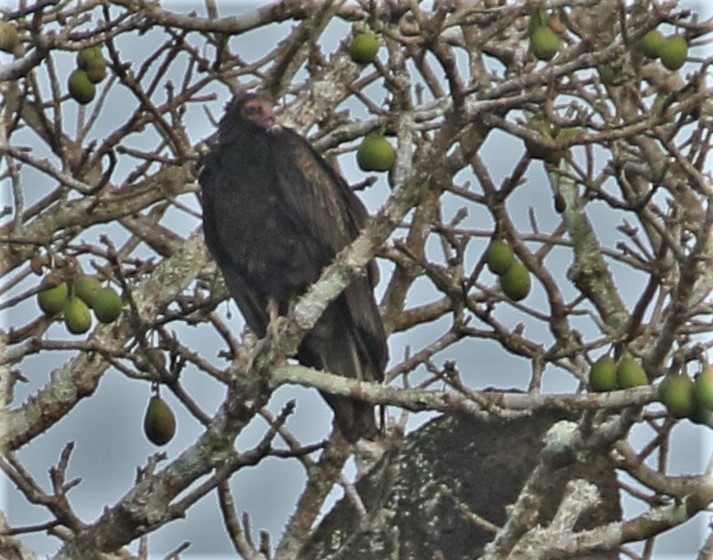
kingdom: Animalia
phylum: Chordata
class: Aves
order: Accipitriformes
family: Cathartidae
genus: Cathartes
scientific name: Cathartes aura
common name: Turkey vulture
